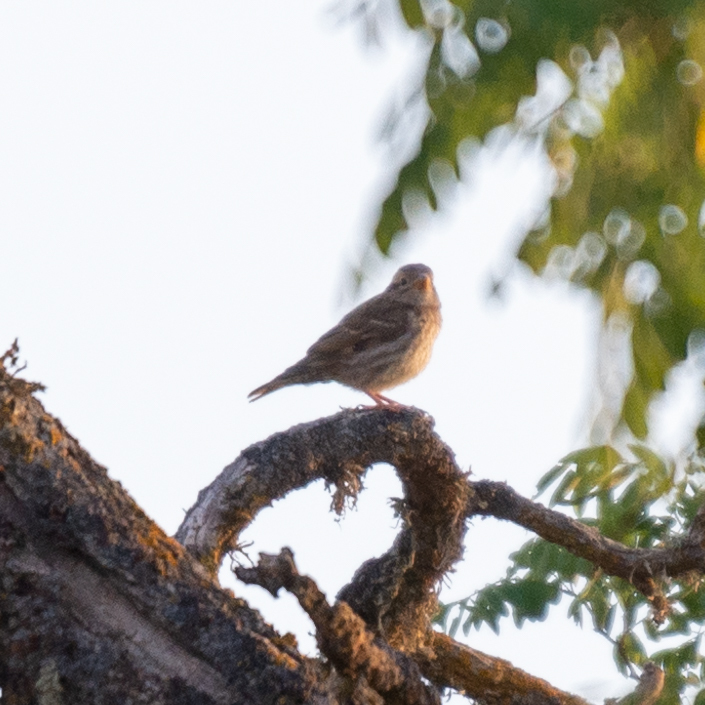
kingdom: Animalia
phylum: Chordata
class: Aves
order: Passeriformes
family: Passeridae
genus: Petronia
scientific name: Petronia petronia
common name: Rock sparrow
